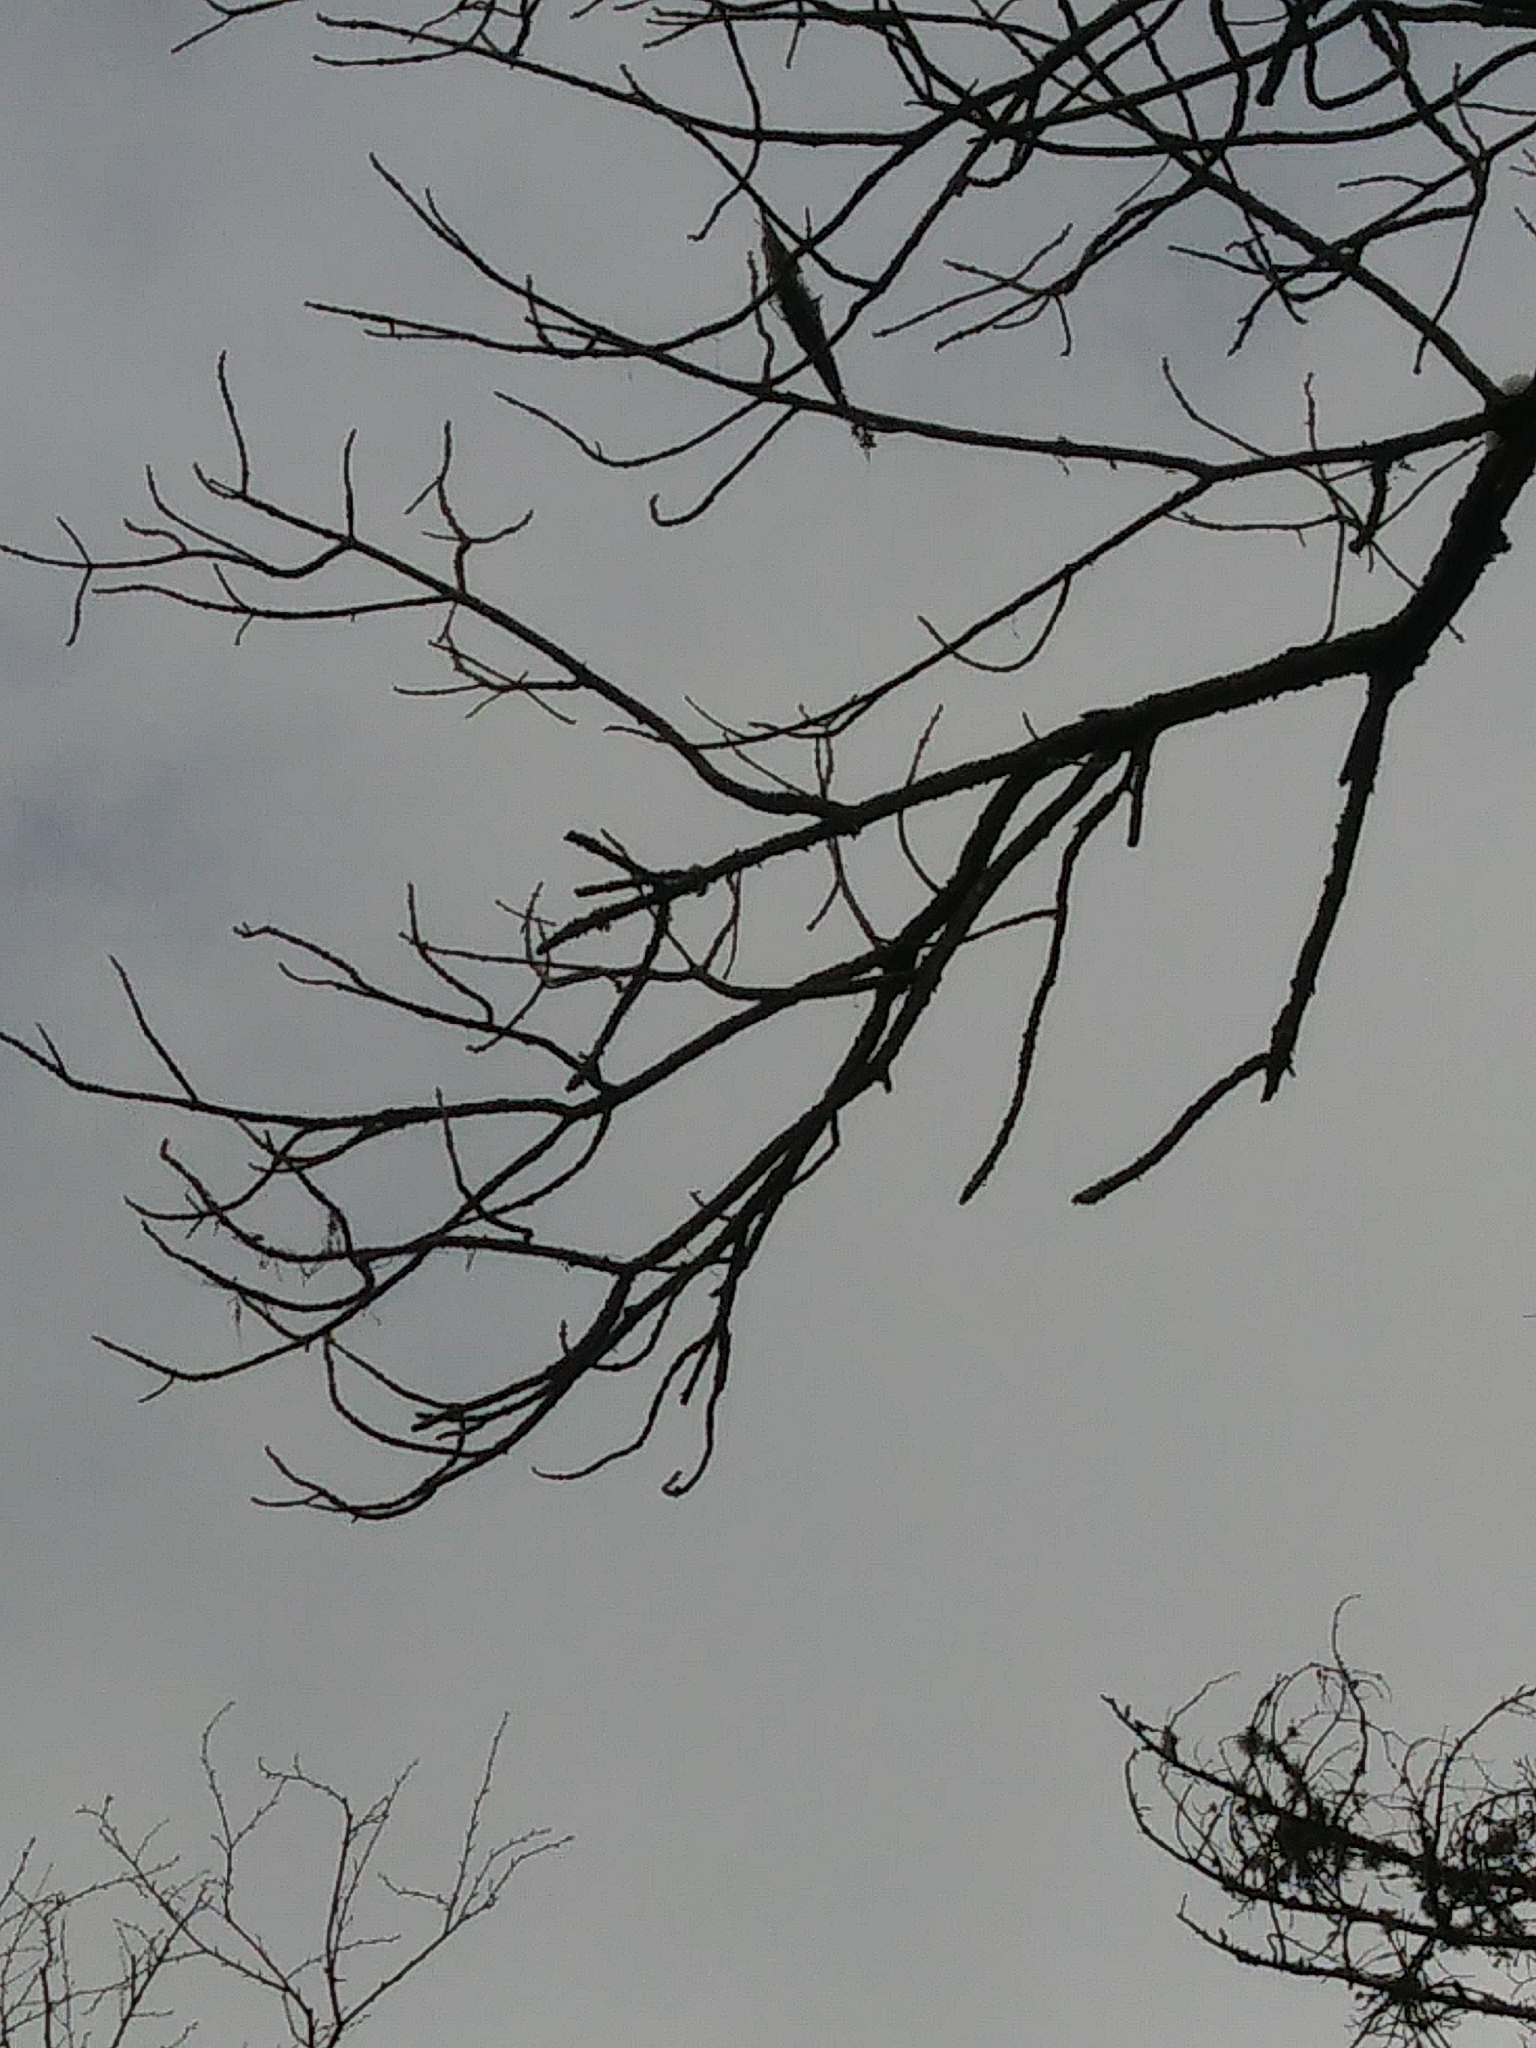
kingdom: Plantae
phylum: Tracheophyta
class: Magnoliopsida
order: Lamiales
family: Oleaceae
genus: Fraxinus
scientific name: Fraxinus nigra
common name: Black ash
